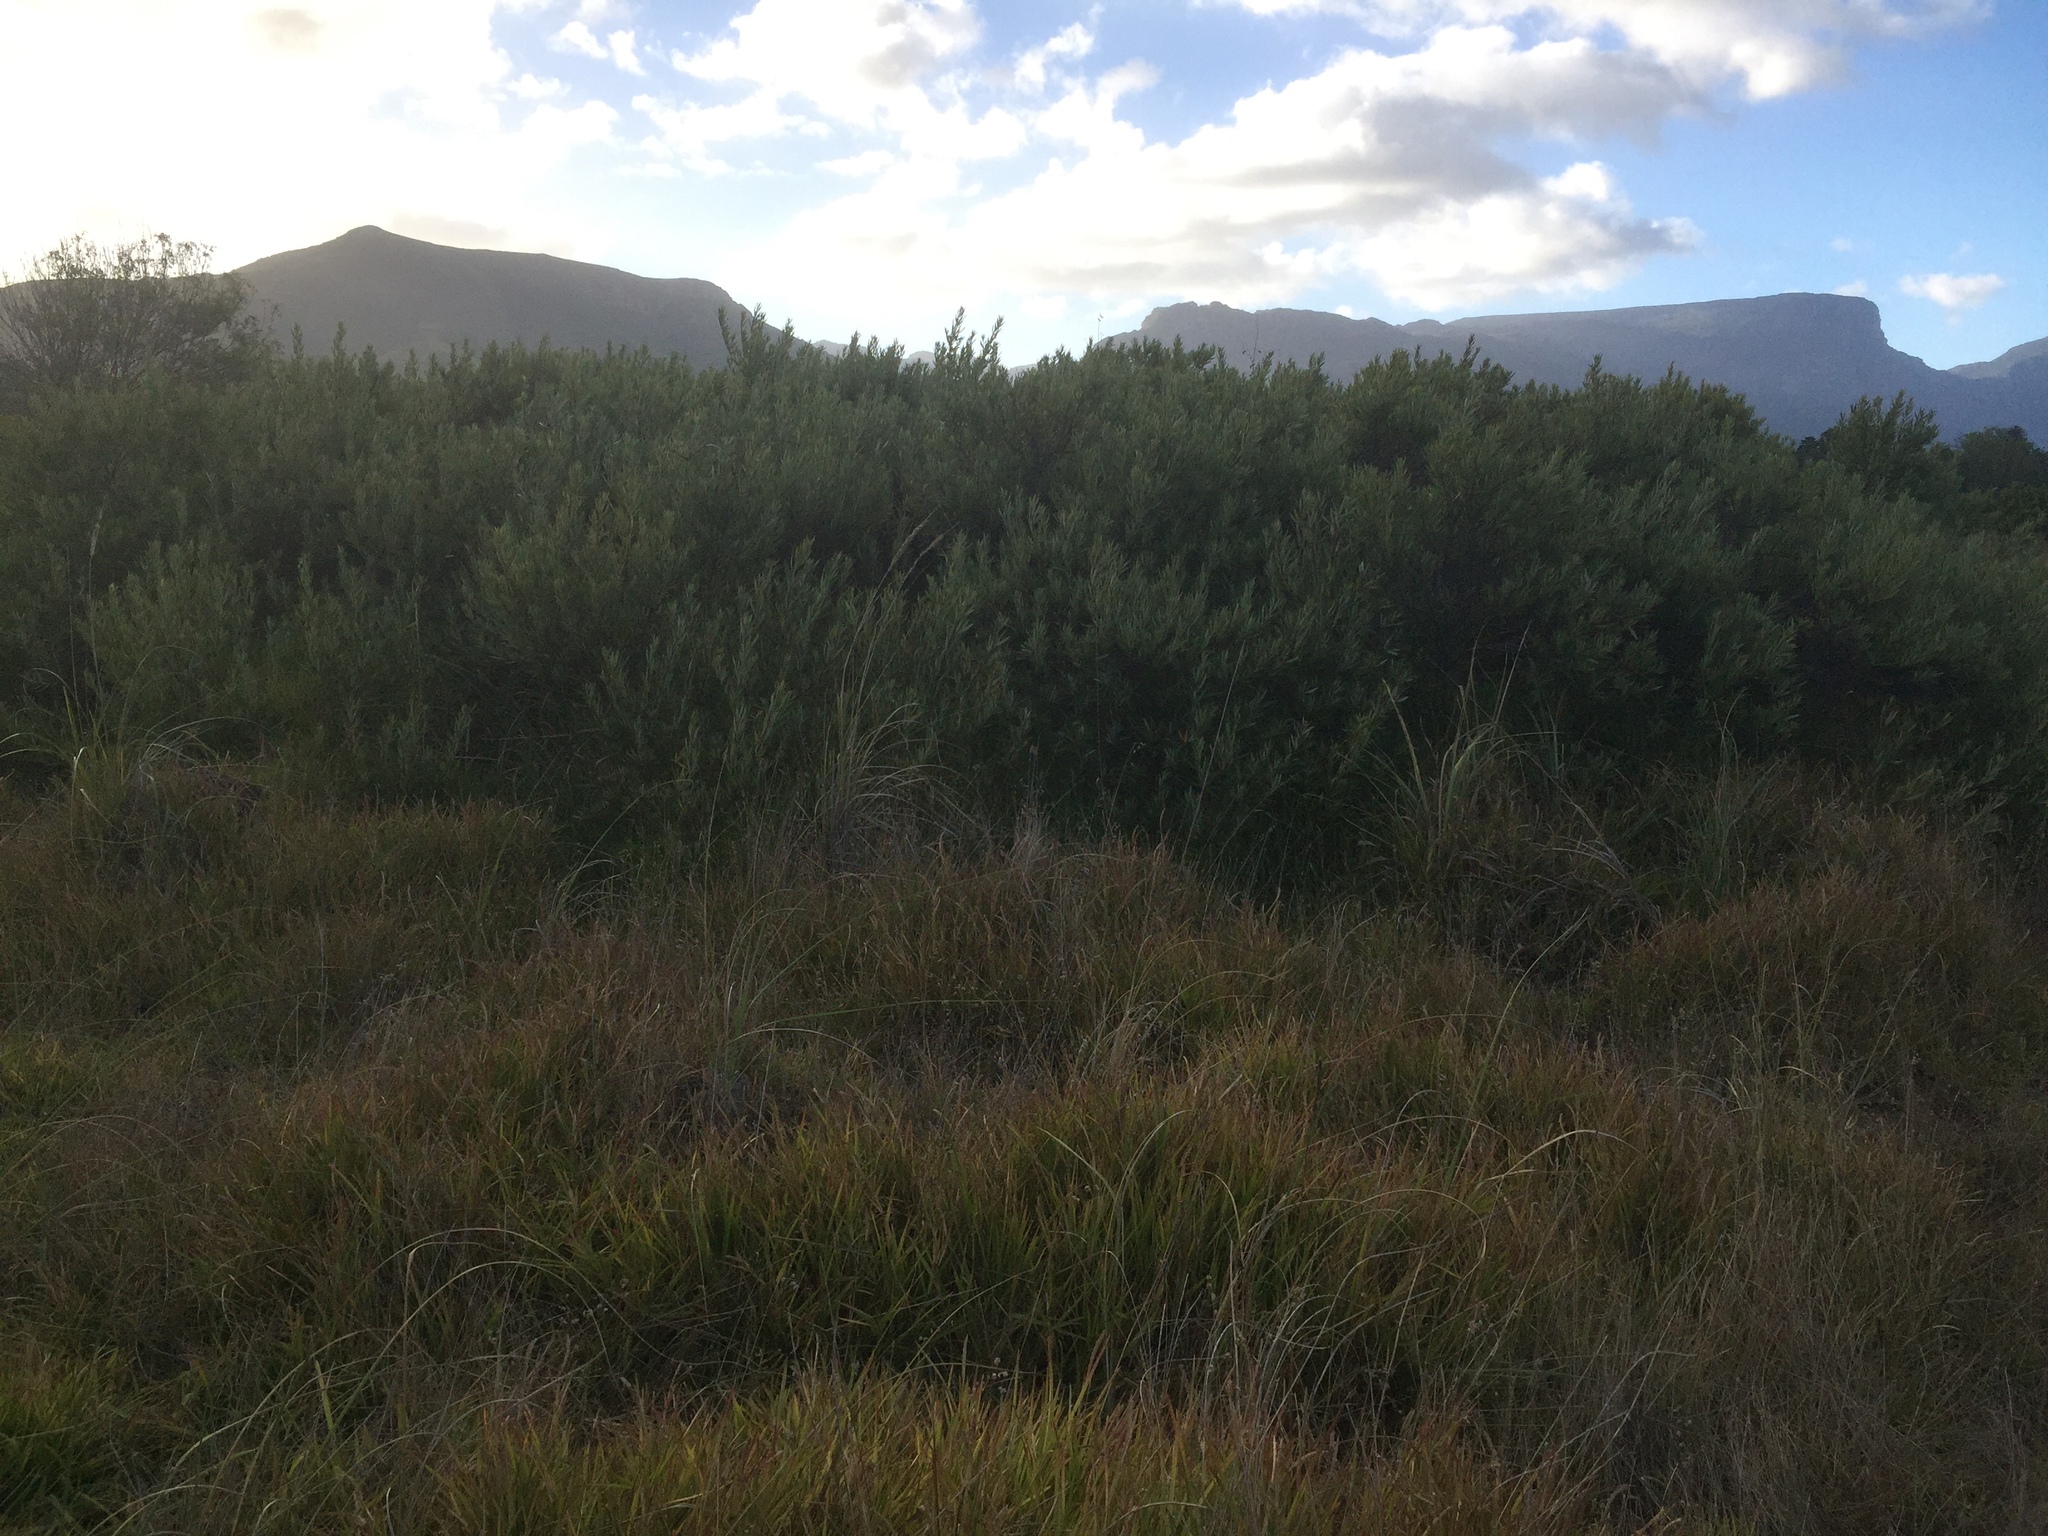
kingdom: Plantae
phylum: Tracheophyta
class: Magnoliopsida
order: Sapindales
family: Anacardiaceae
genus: Searsia
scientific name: Searsia angustifolia
